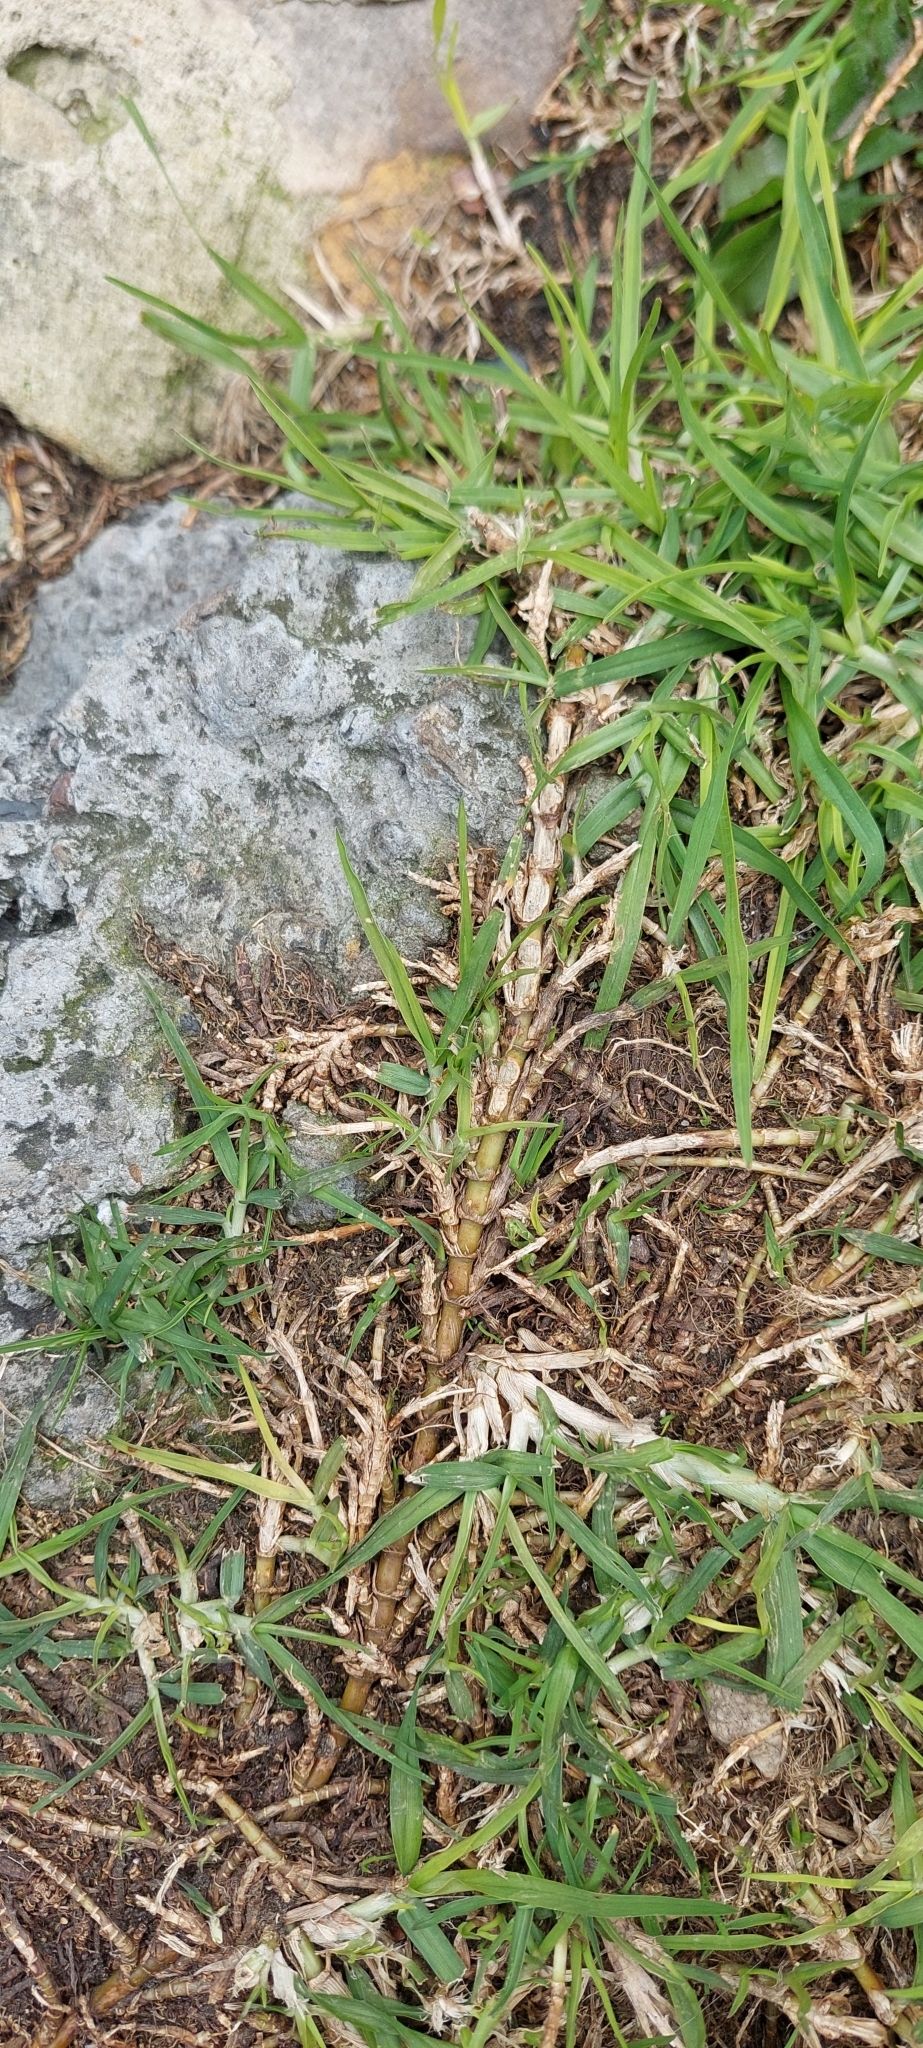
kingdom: Plantae
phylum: Tracheophyta
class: Liliopsida
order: Poales
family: Poaceae
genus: Cenchrus
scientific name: Cenchrus clandestinus
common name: Kikuyugrass
